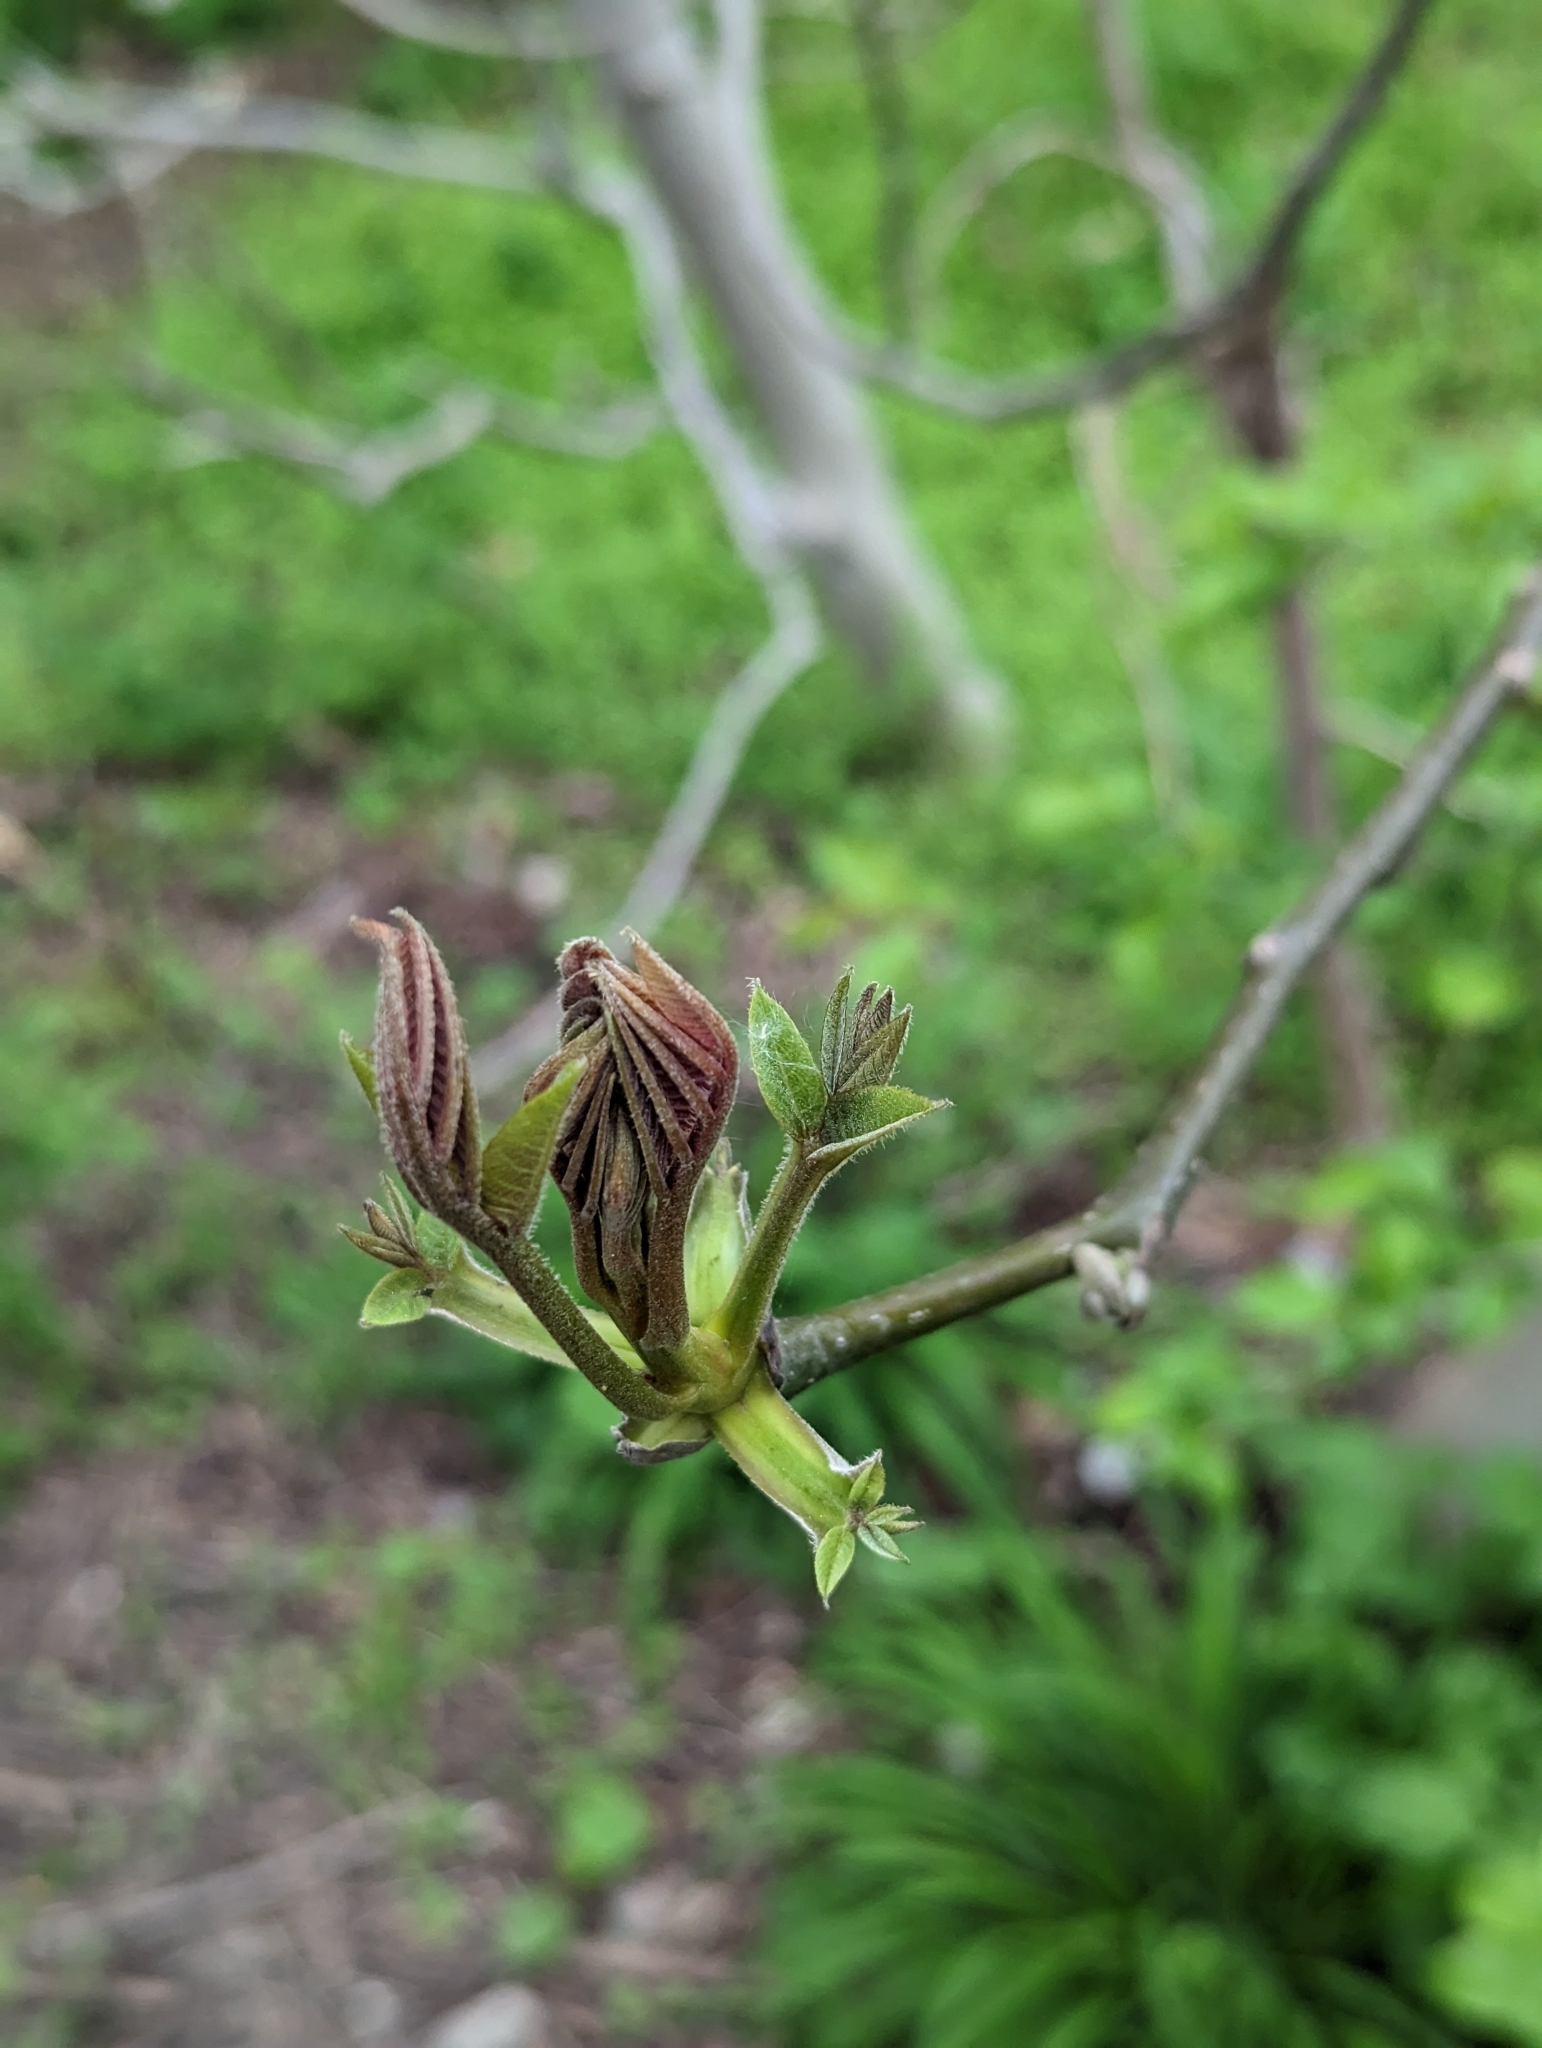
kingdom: Plantae
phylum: Tracheophyta
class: Magnoliopsida
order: Fagales
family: Juglandaceae
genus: Juglans
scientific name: Juglans regia
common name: Walnut
